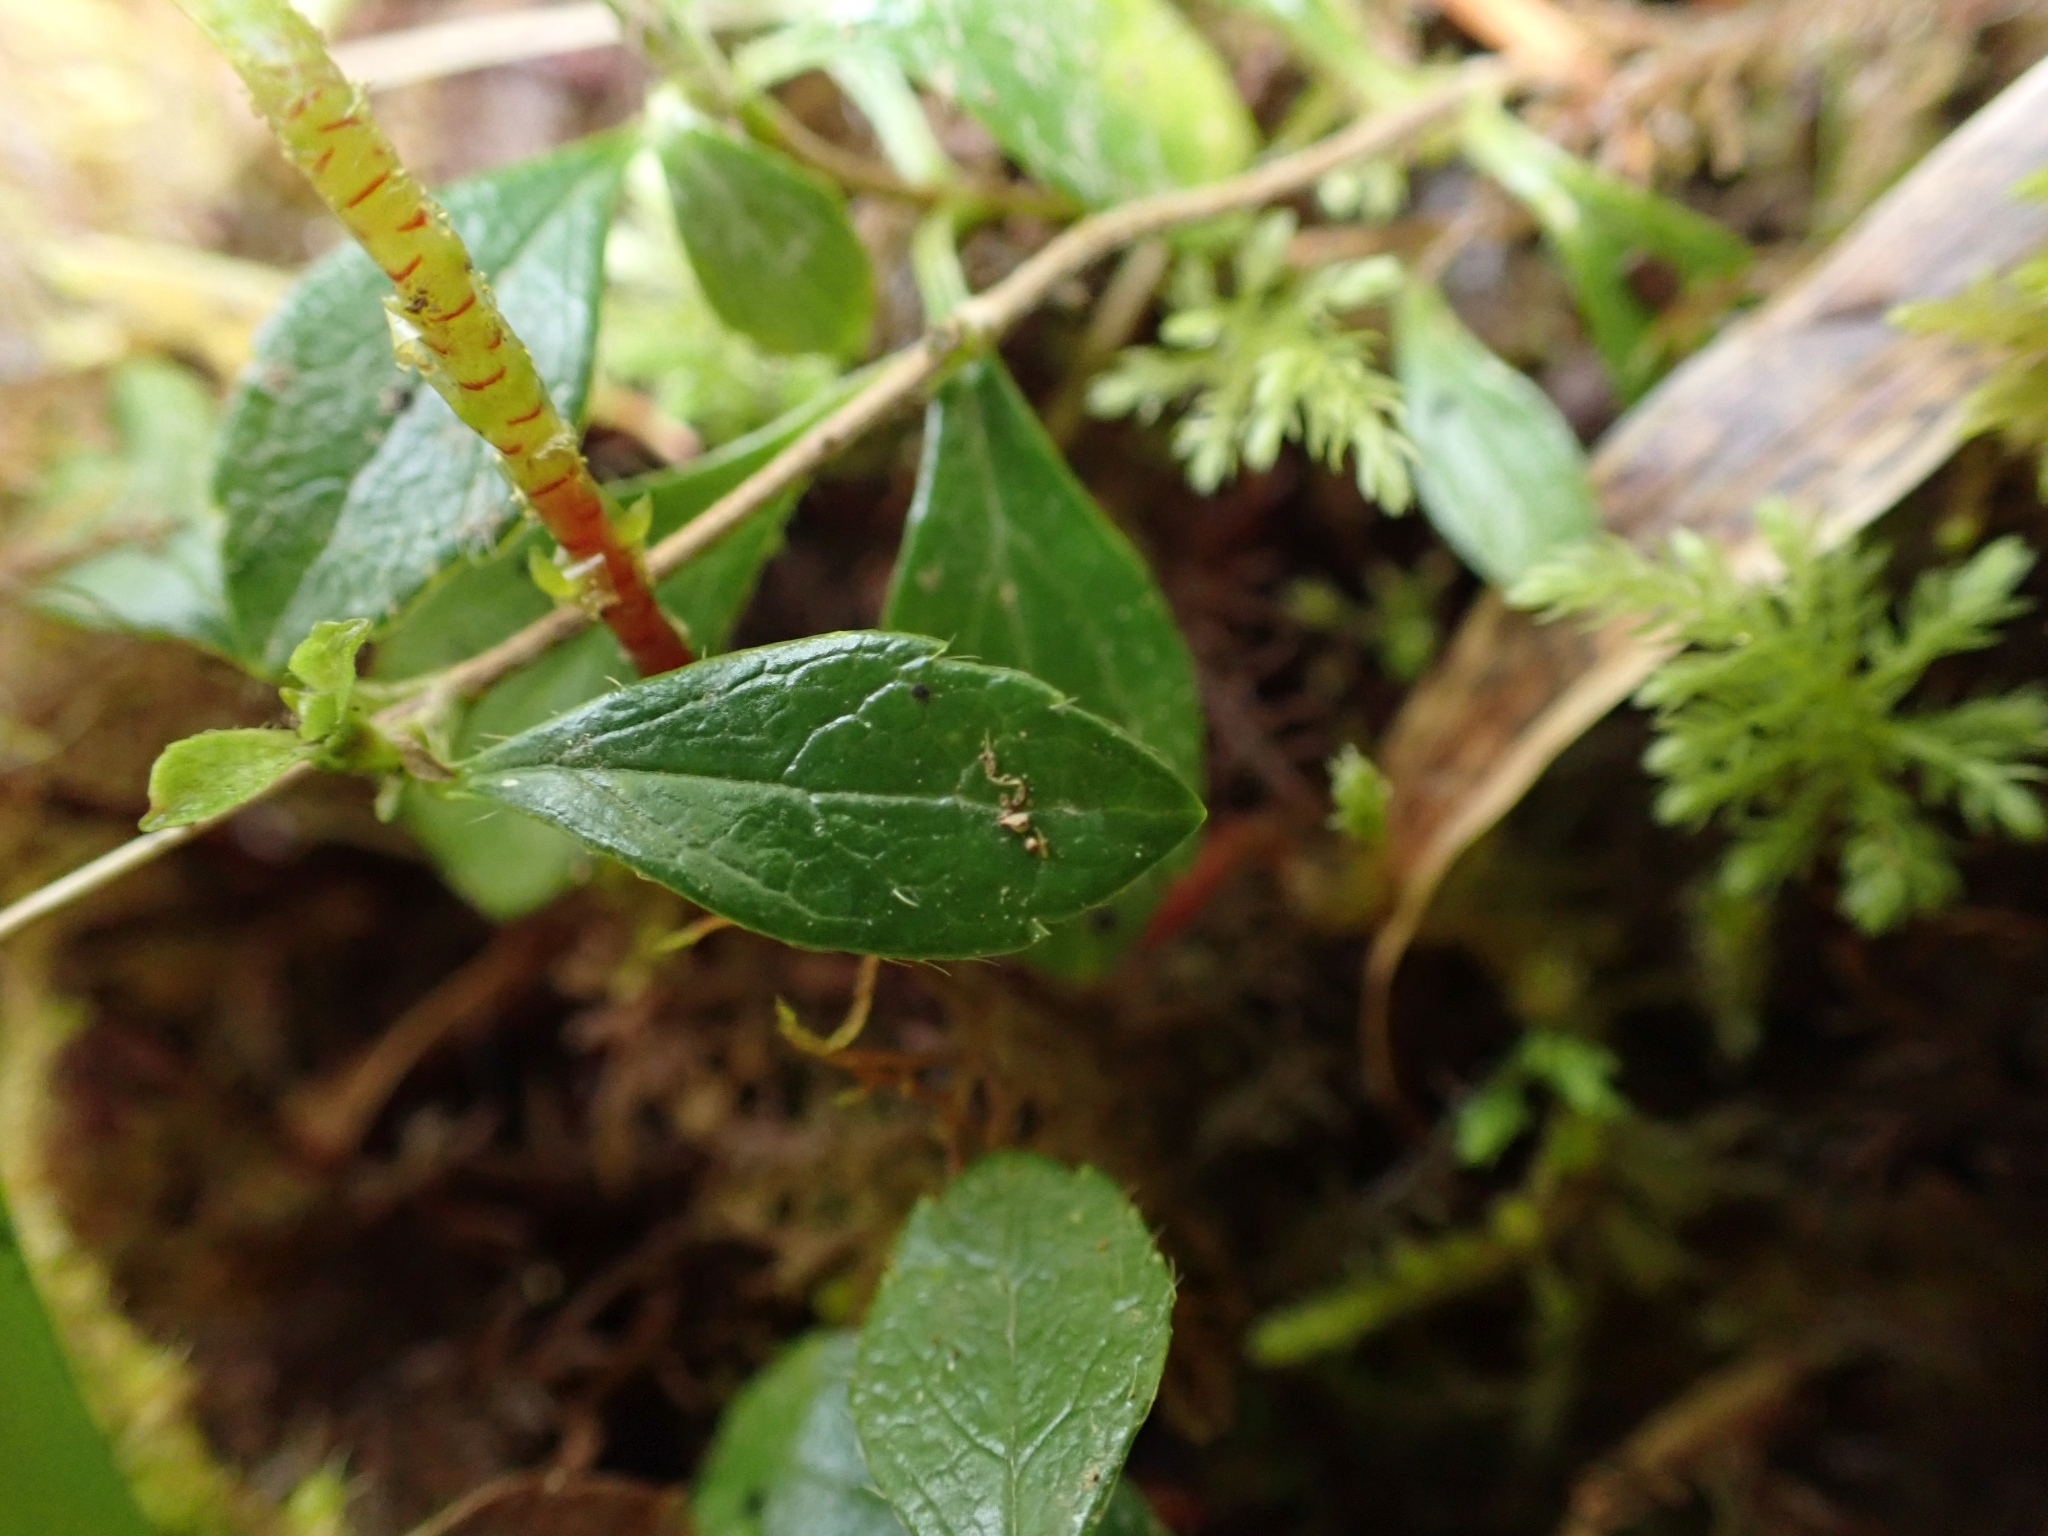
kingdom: Plantae
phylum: Tracheophyta
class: Magnoliopsida
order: Dipsacales
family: Caprifoliaceae
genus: Linnaea
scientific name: Linnaea borealis
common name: Twinflower
